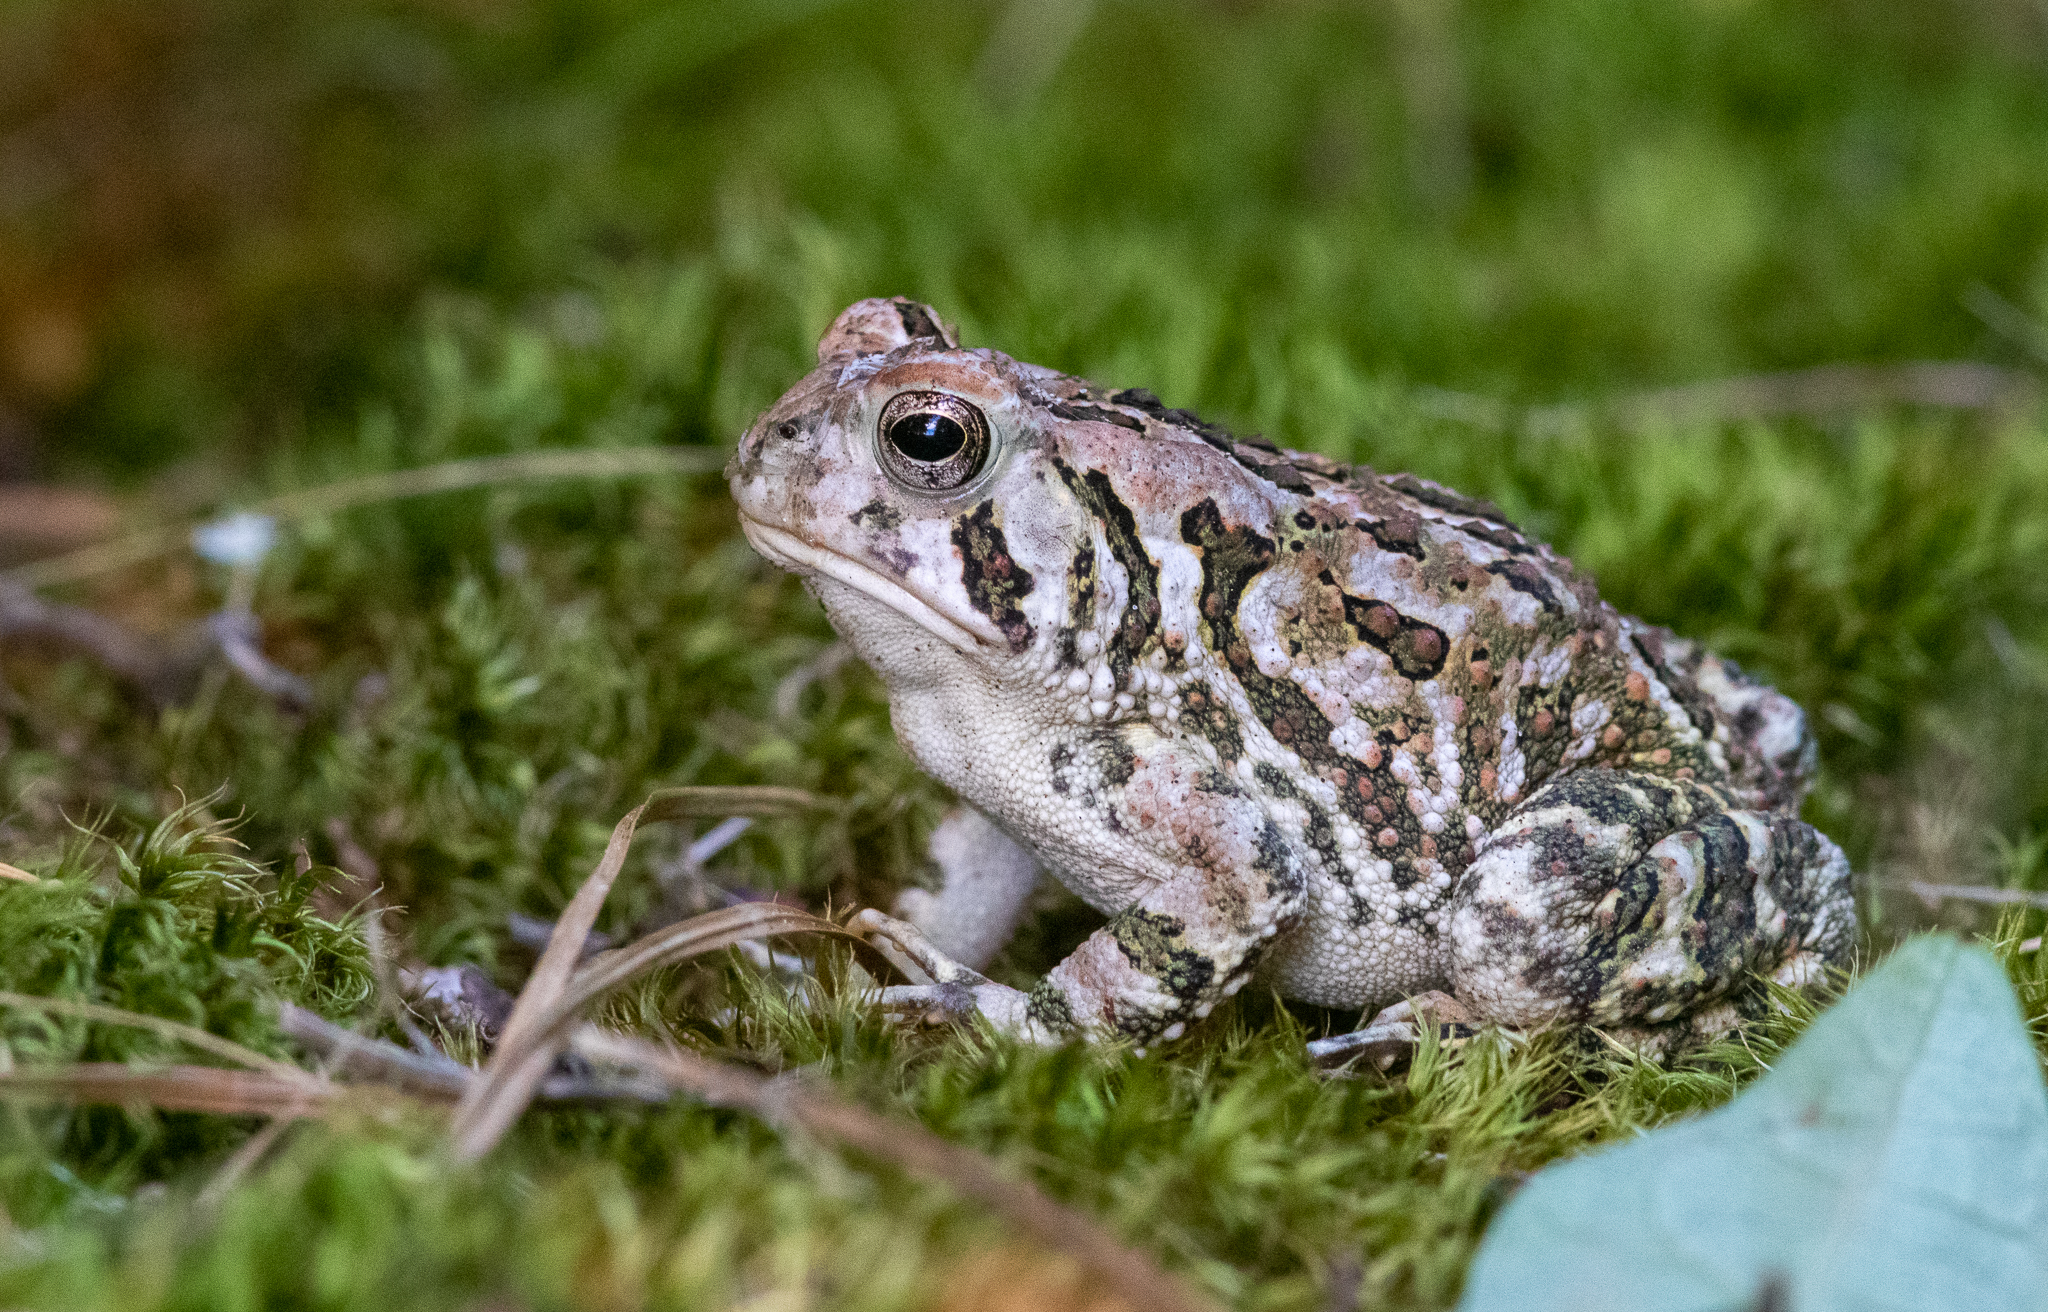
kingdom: Animalia
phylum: Chordata
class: Amphibia
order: Anura
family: Bufonidae
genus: Anaxyrus
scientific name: Anaxyrus fowleri
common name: Fowler's toad
